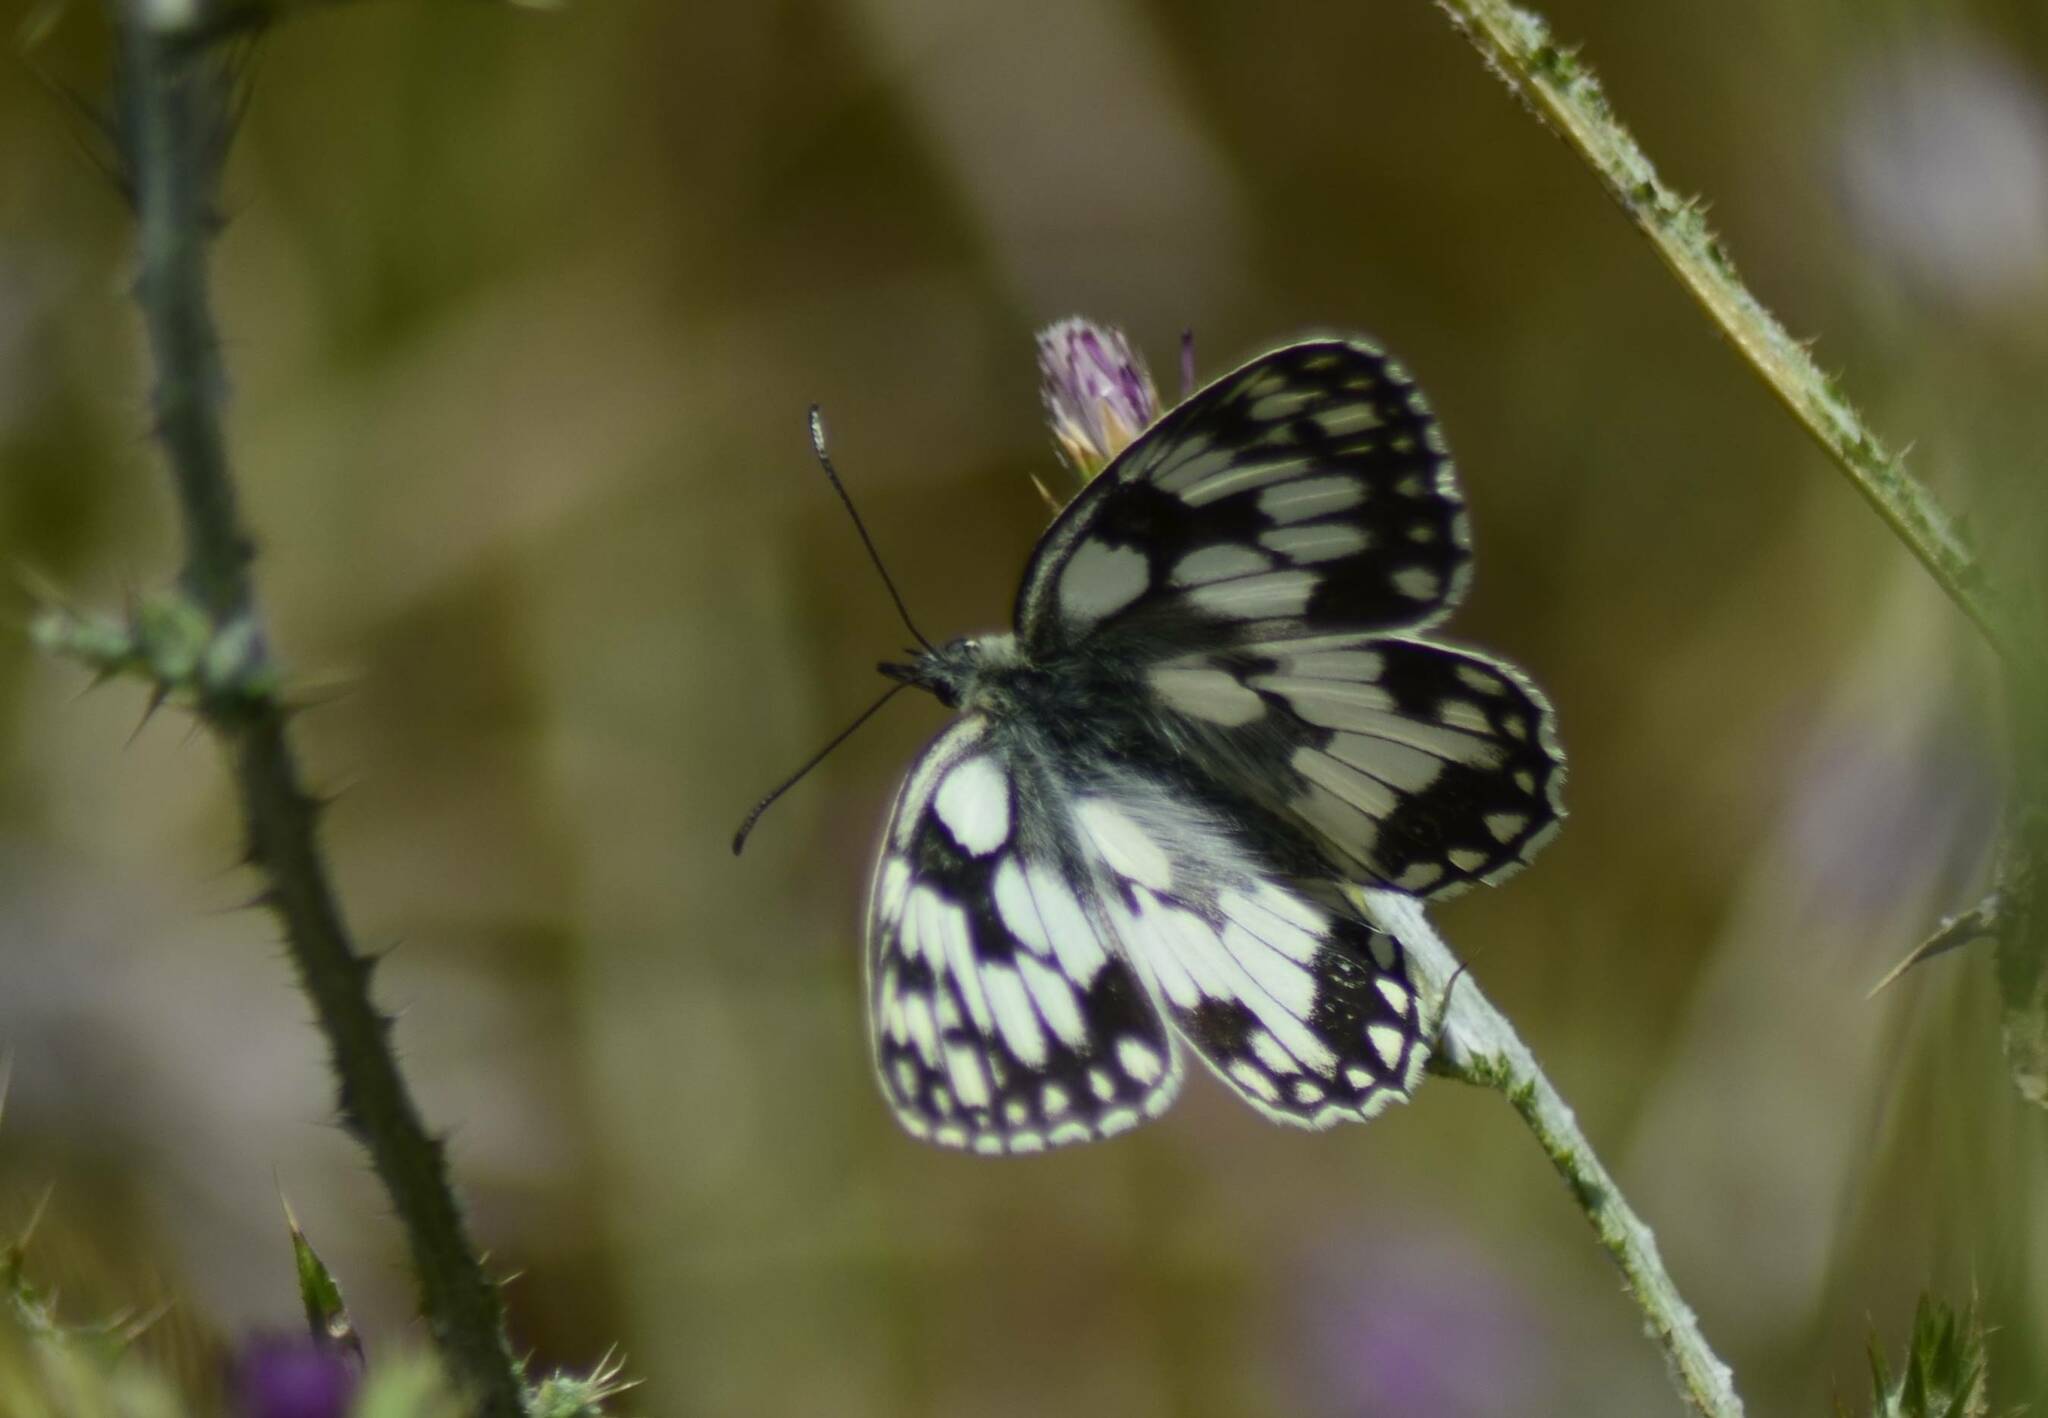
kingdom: Animalia
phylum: Arthropoda
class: Insecta
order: Lepidoptera
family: Nymphalidae
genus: Melanargia
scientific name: Melanargia ines
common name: Spanish marbled white
